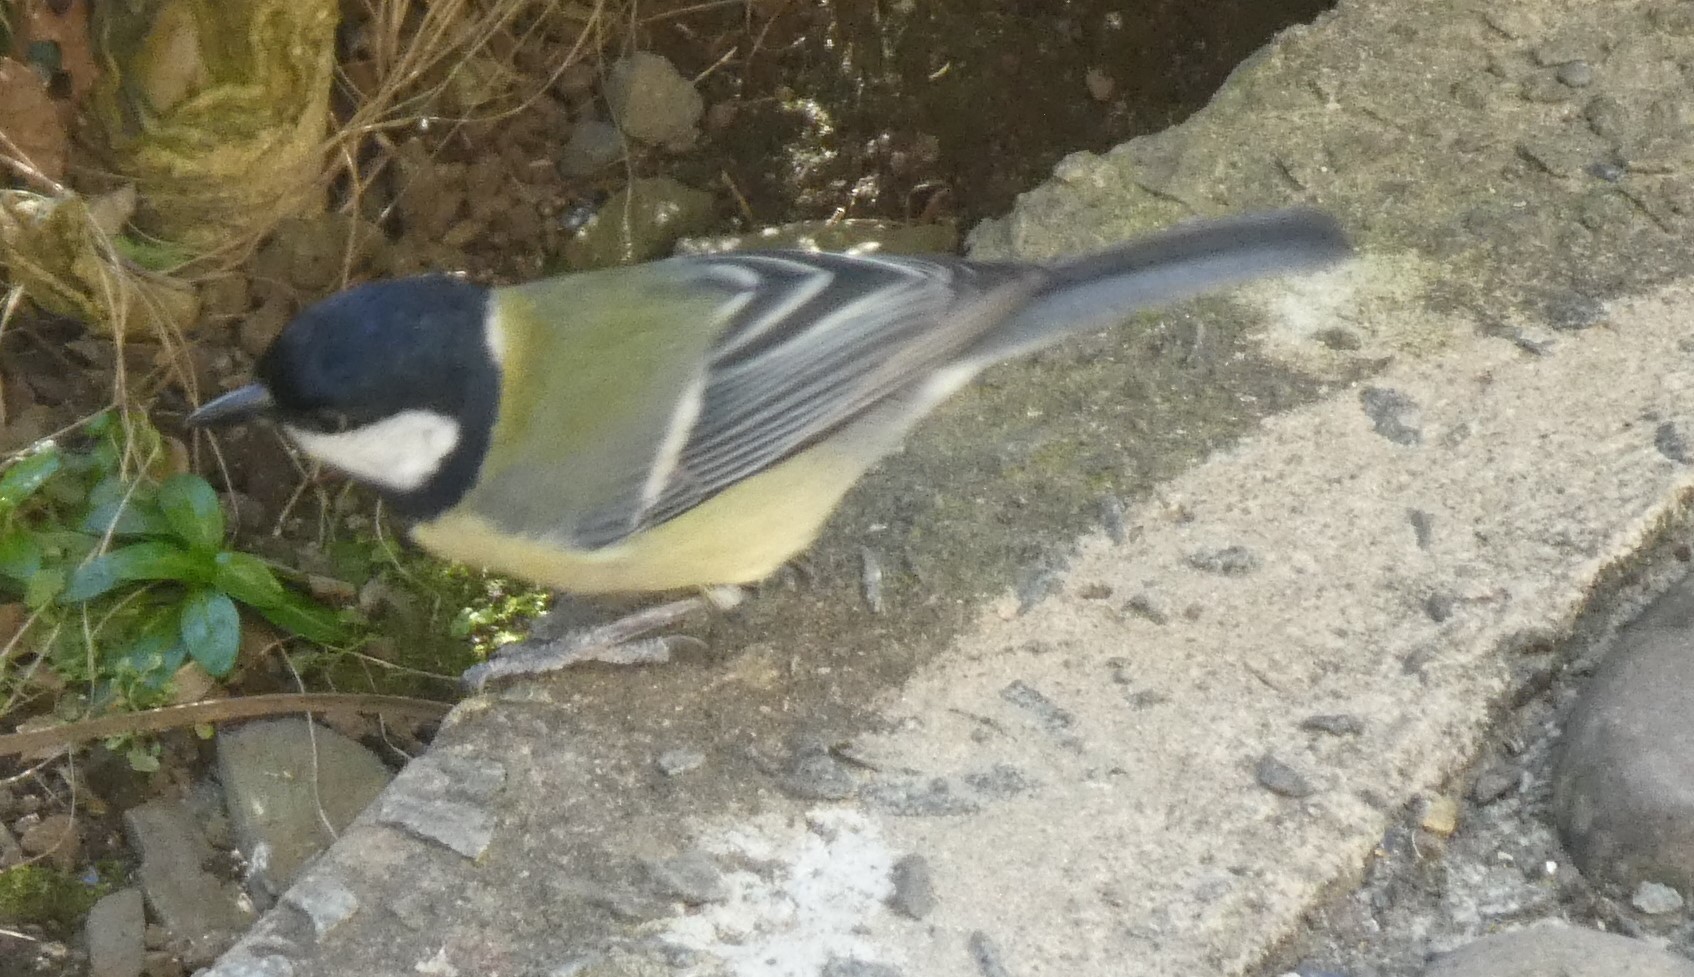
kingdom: Animalia
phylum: Chordata
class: Aves
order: Passeriformes
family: Paridae
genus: Parus
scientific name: Parus major
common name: Great tit
